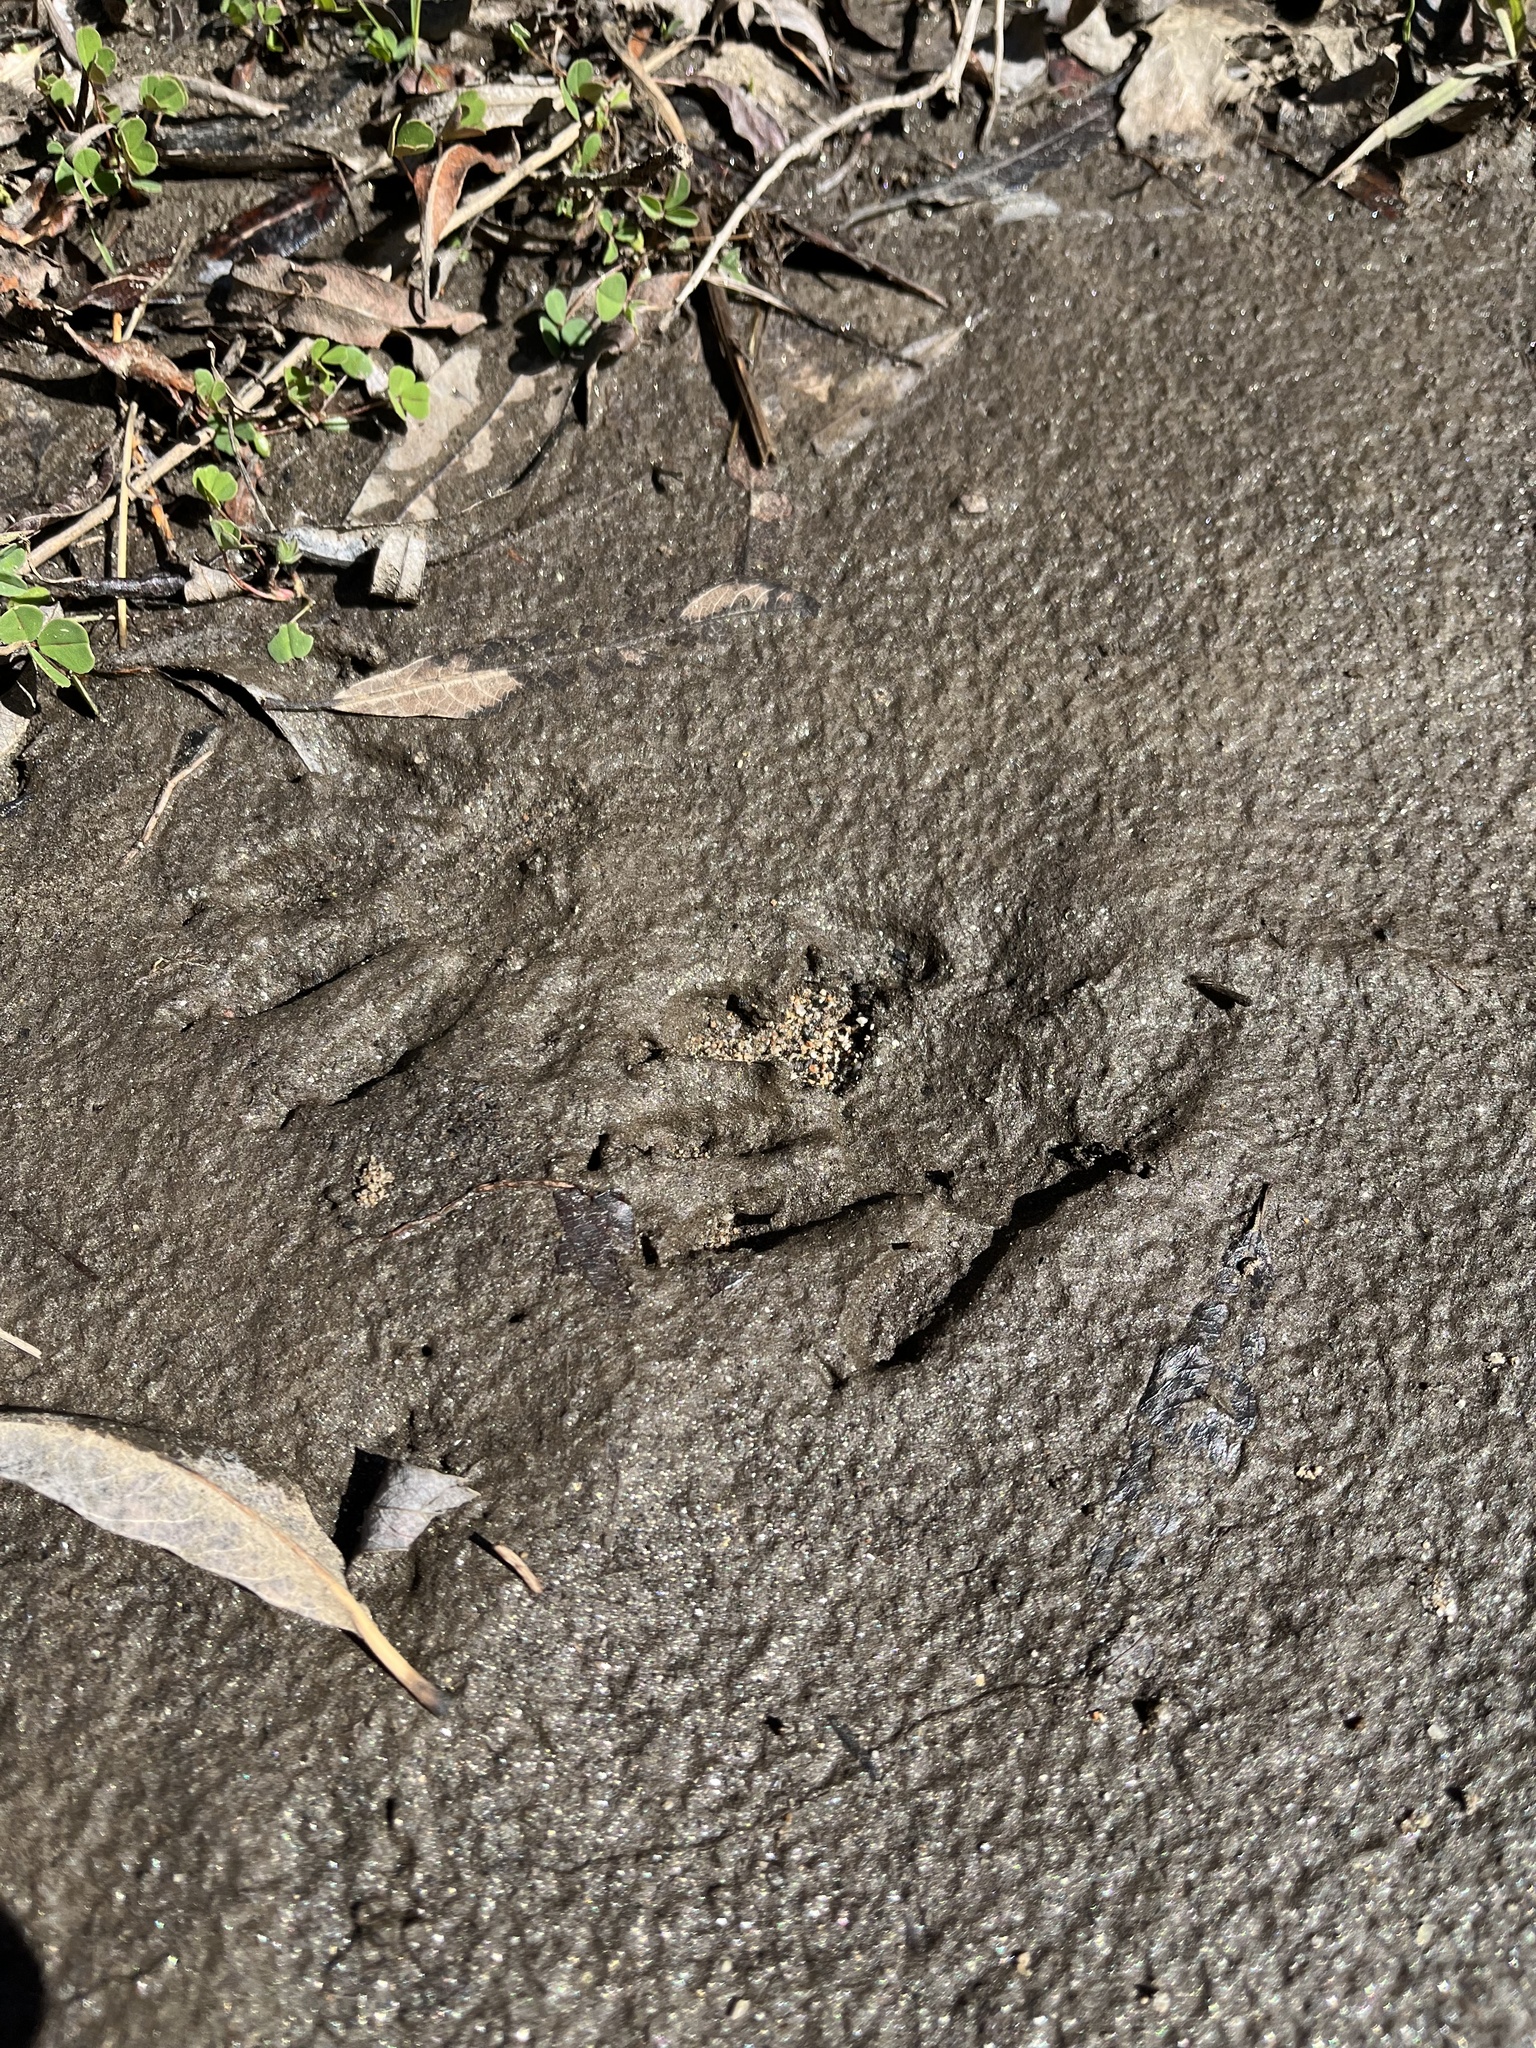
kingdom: Animalia
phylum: Chordata
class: Mammalia
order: Carnivora
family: Procyonidae
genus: Procyon
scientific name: Procyon lotor
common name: Raccoon
